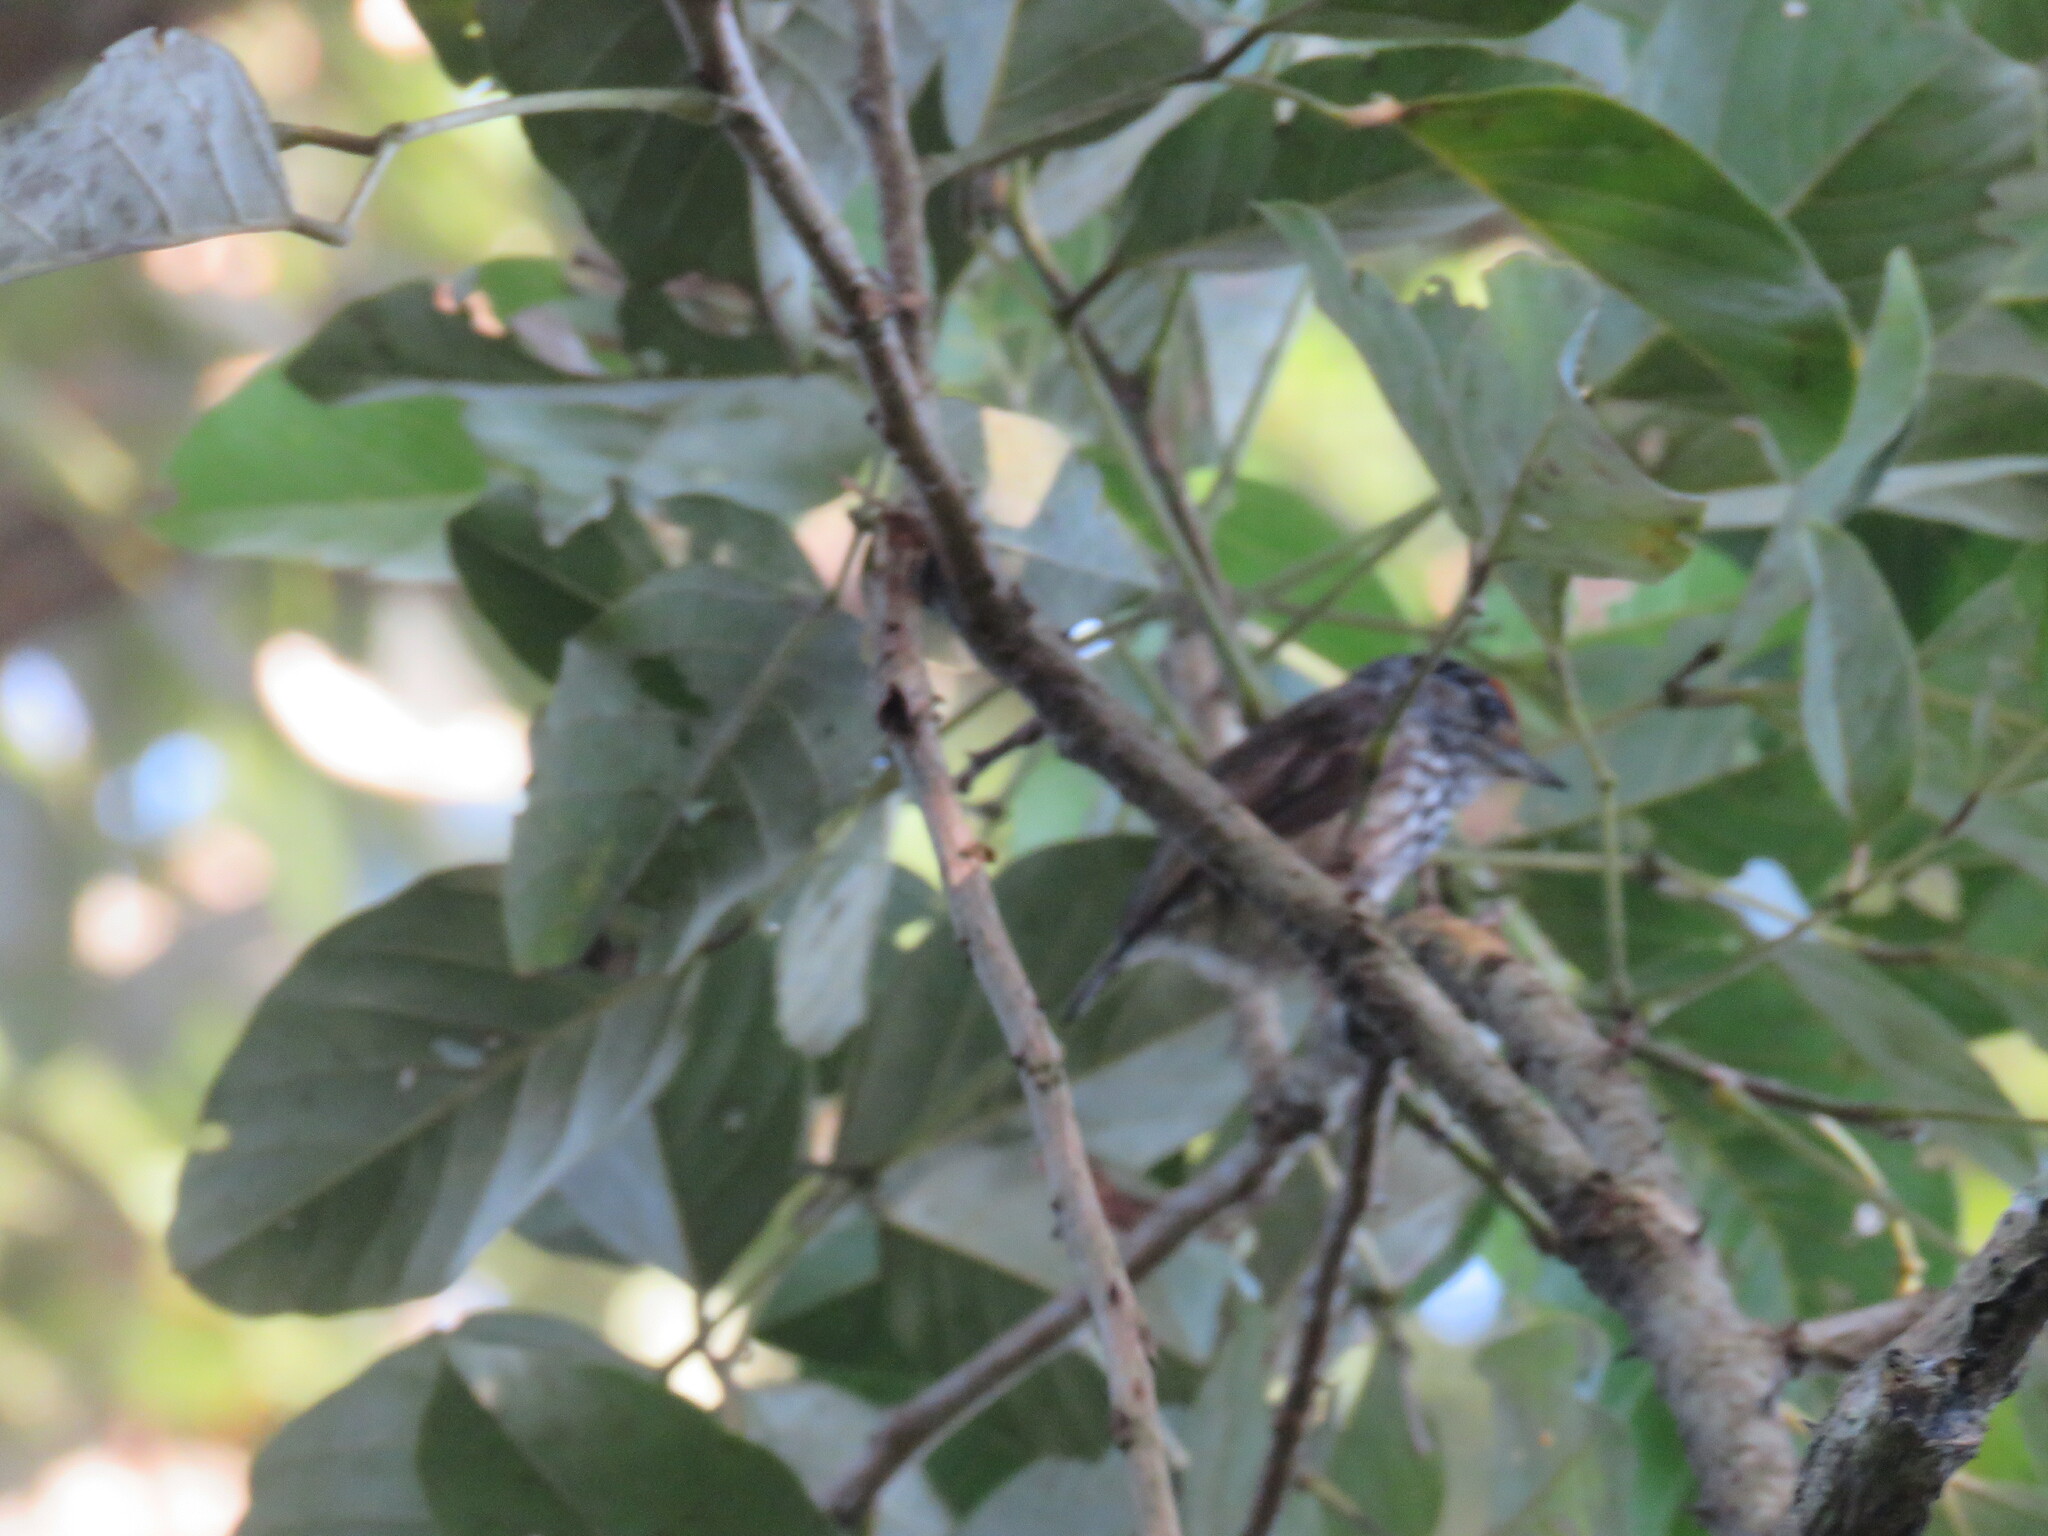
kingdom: Animalia
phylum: Chordata
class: Aves
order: Piciformes
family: Picidae
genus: Picumnus
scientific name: Picumnus albosquamatus
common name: White-wedged piculet
